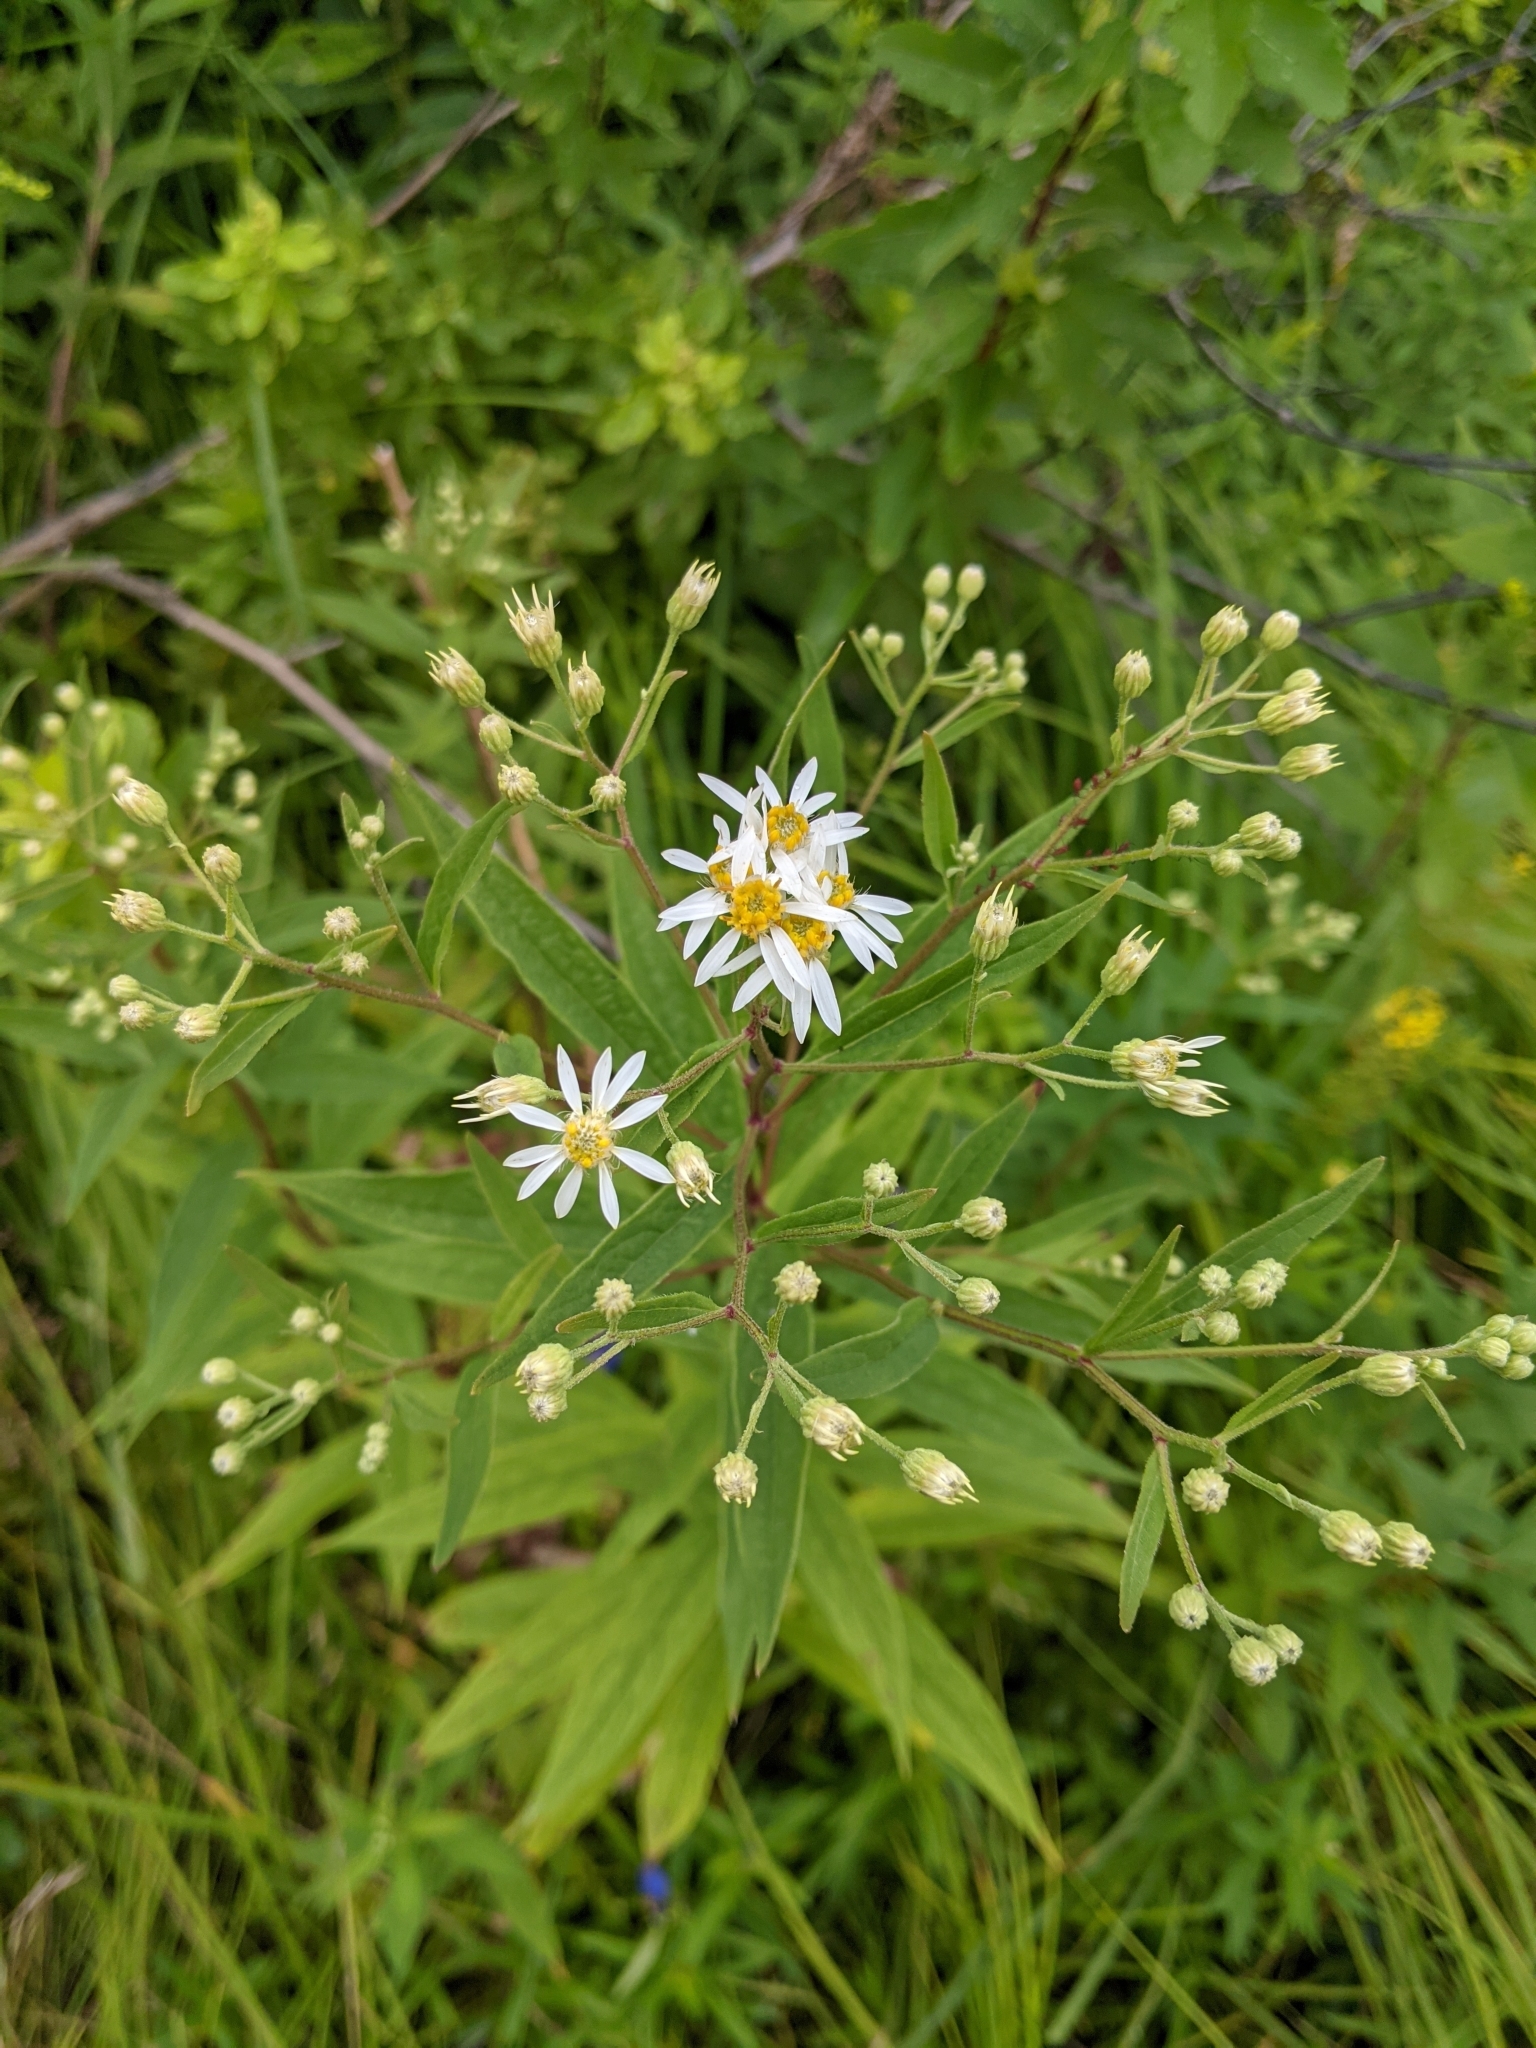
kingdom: Plantae
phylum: Tracheophyta
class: Magnoliopsida
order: Asterales
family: Asteraceae
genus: Doellingeria
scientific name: Doellingeria umbellata
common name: Flat-top white aster
